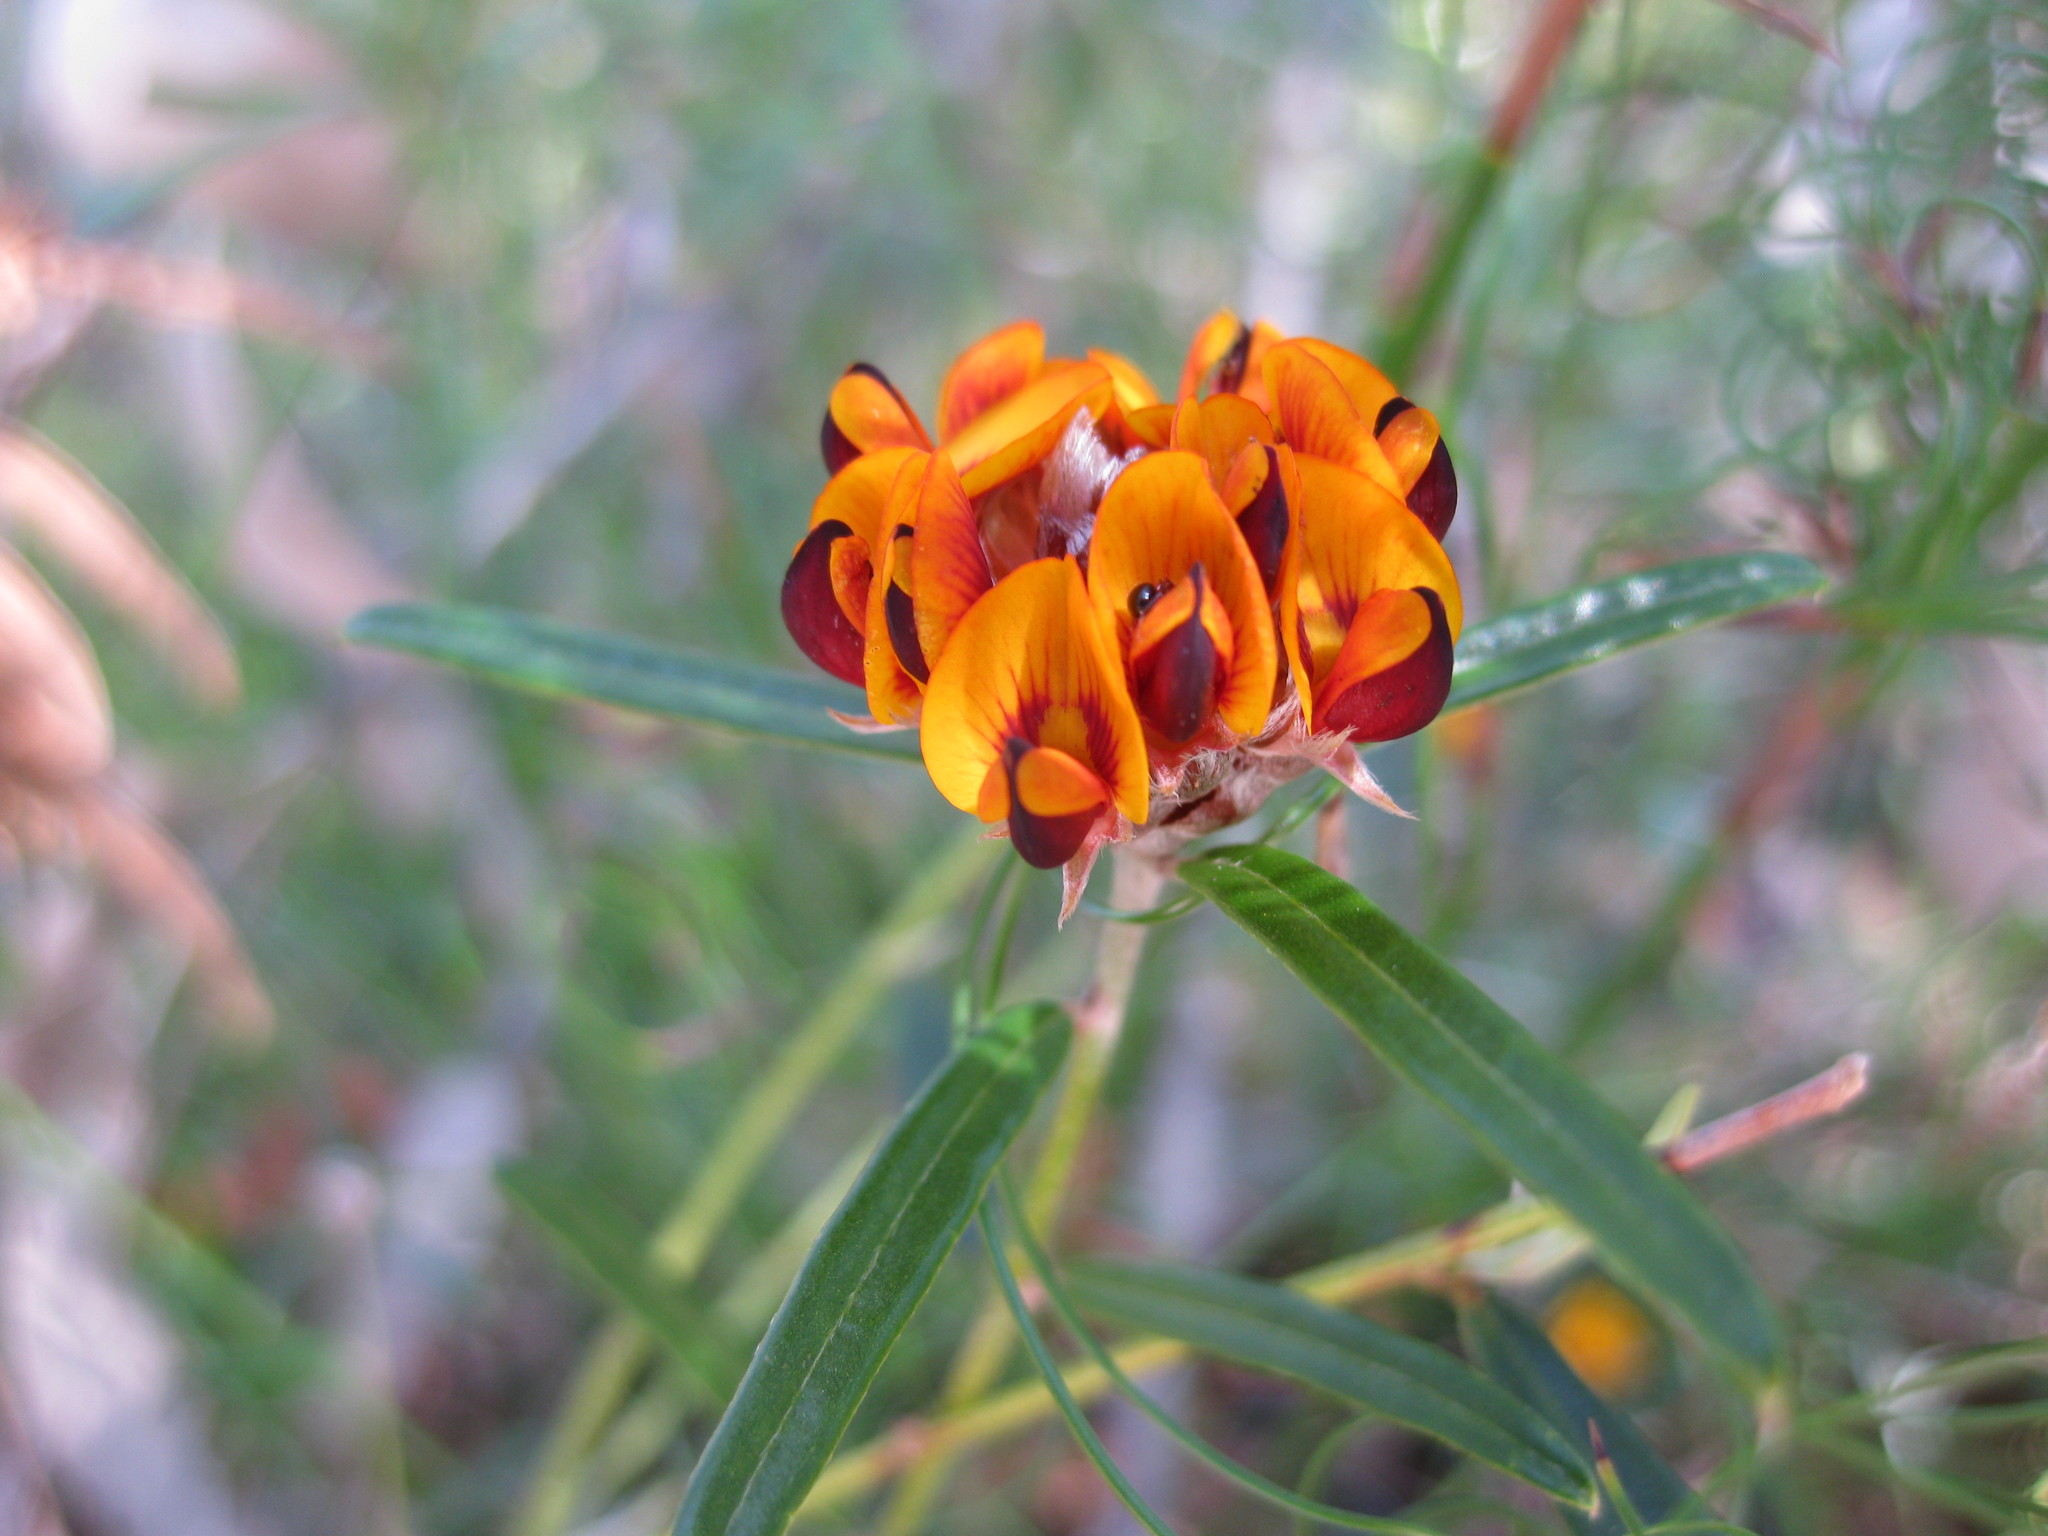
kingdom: Plantae
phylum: Tracheophyta
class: Magnoliopsida
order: Fabales
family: Fabaceae
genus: Pultenaea
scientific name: Pultenaea rosmarinifolia
